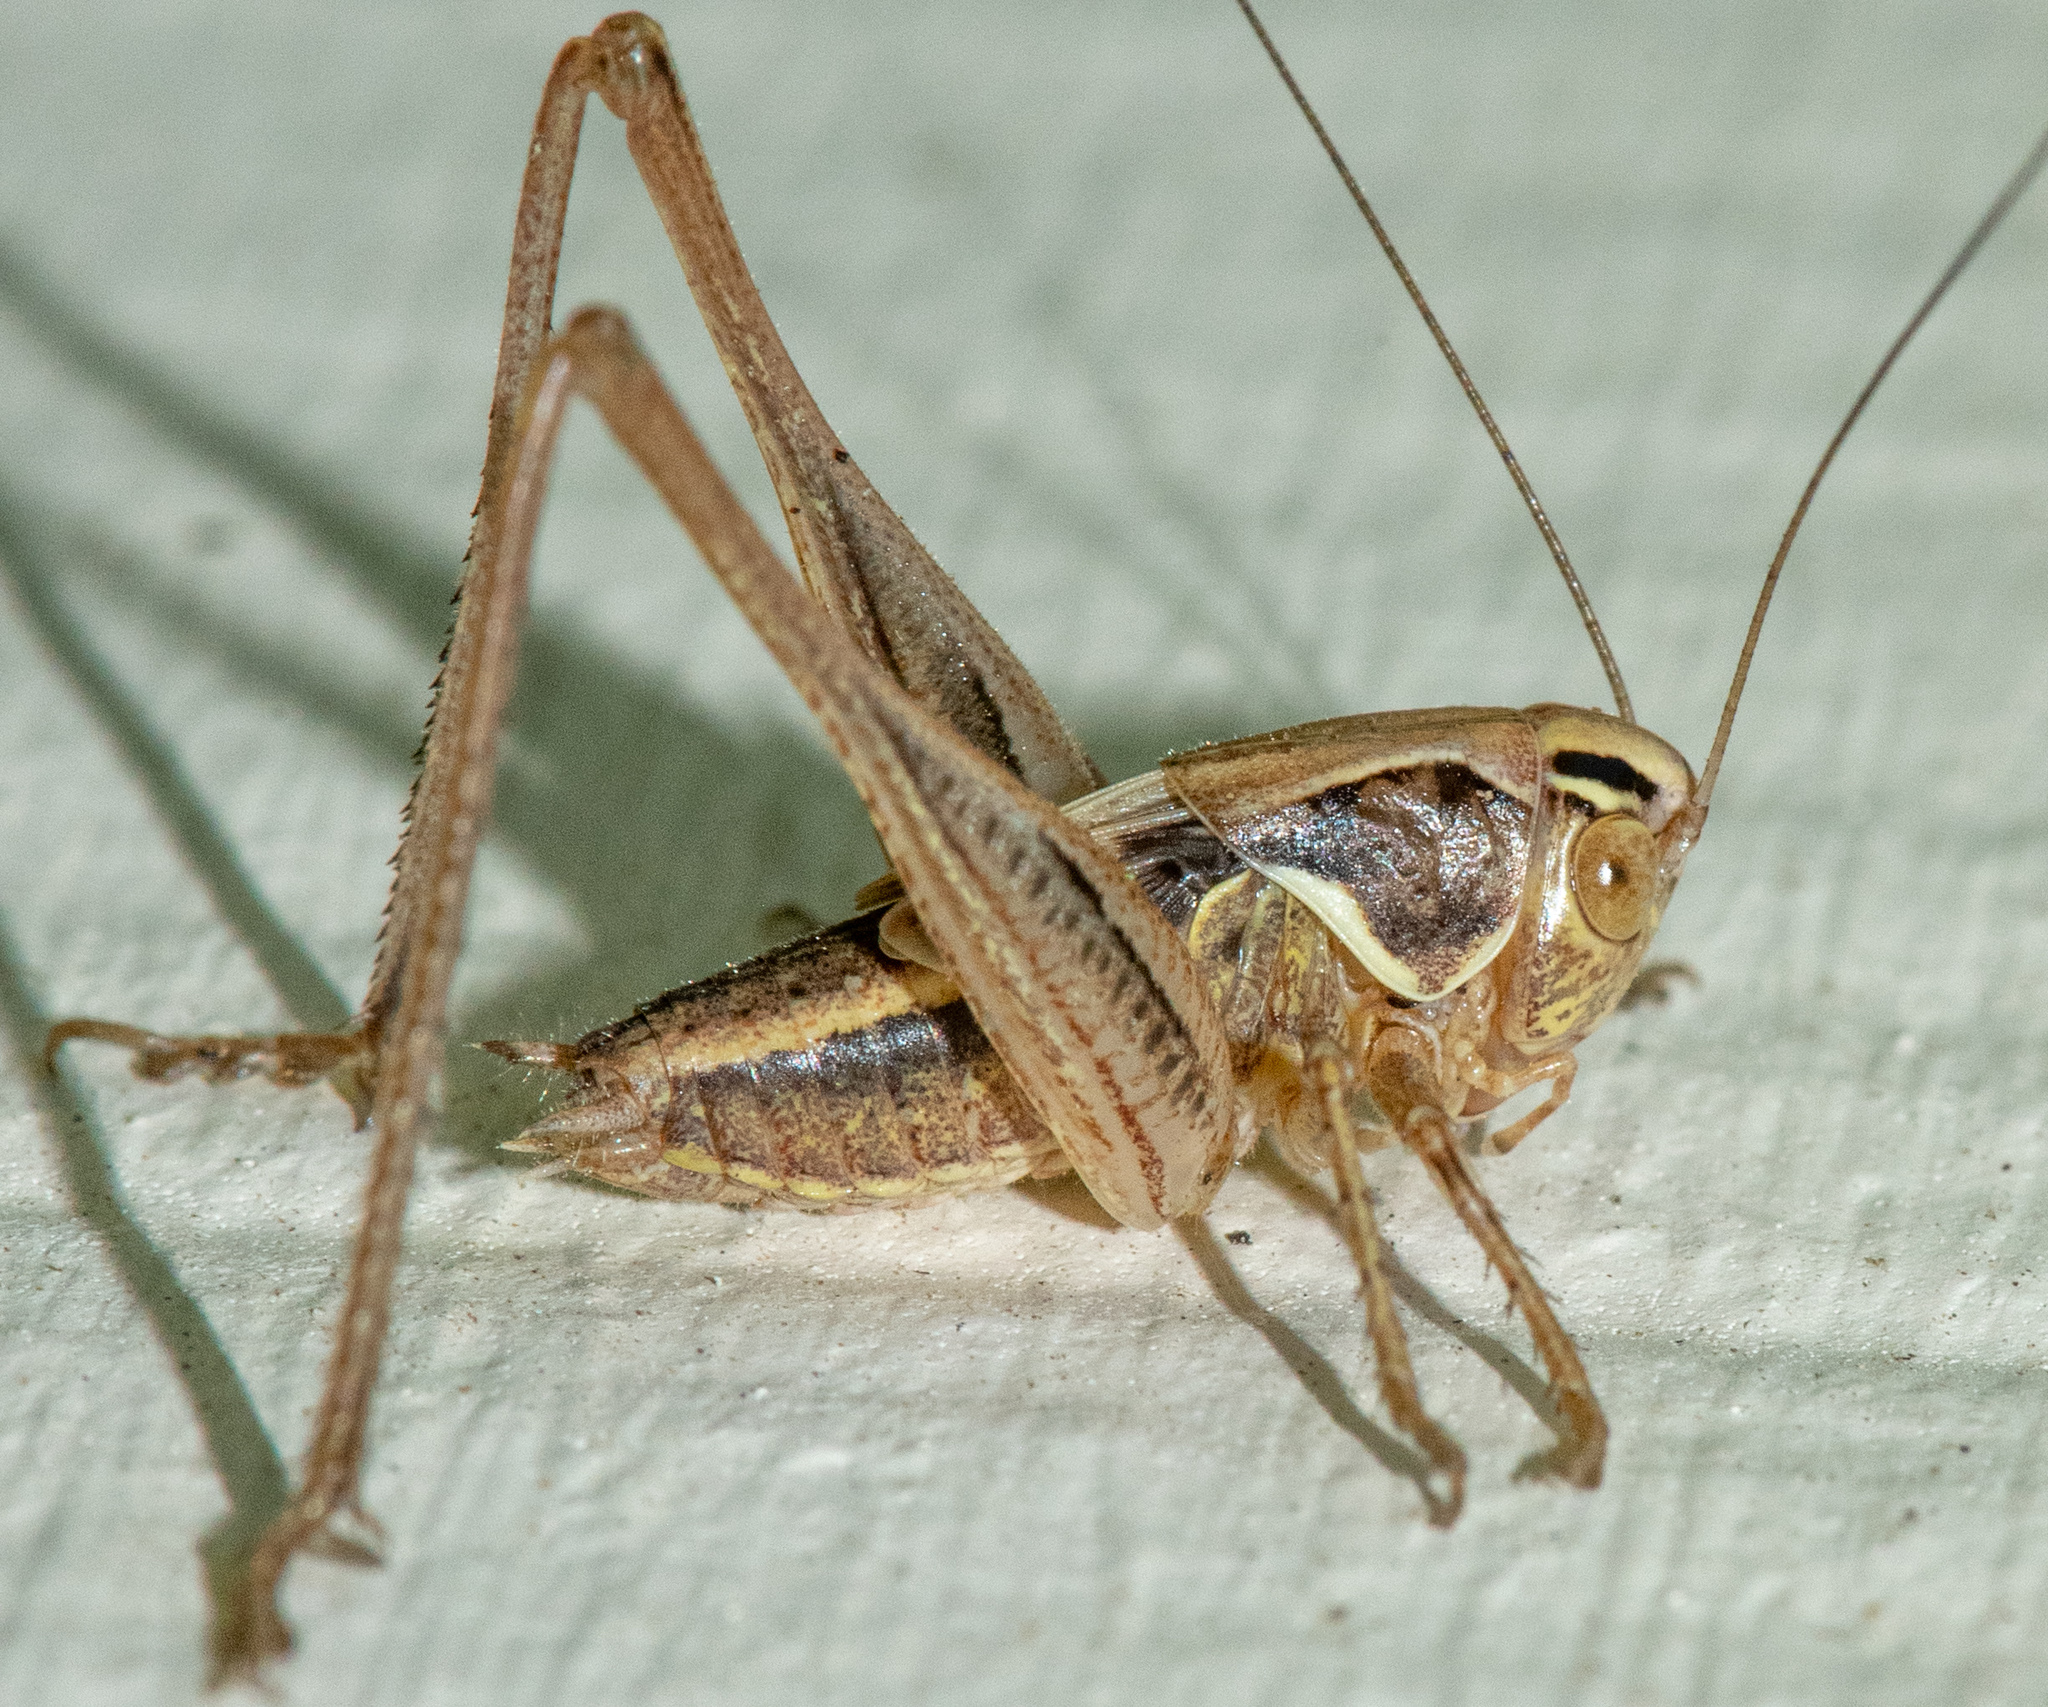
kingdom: Animalia
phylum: Arthropoda
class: Insecta
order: Orthoptera
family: Tettigoniidae
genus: Tessellana
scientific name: Tessellana tessellata
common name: Grasshopper
